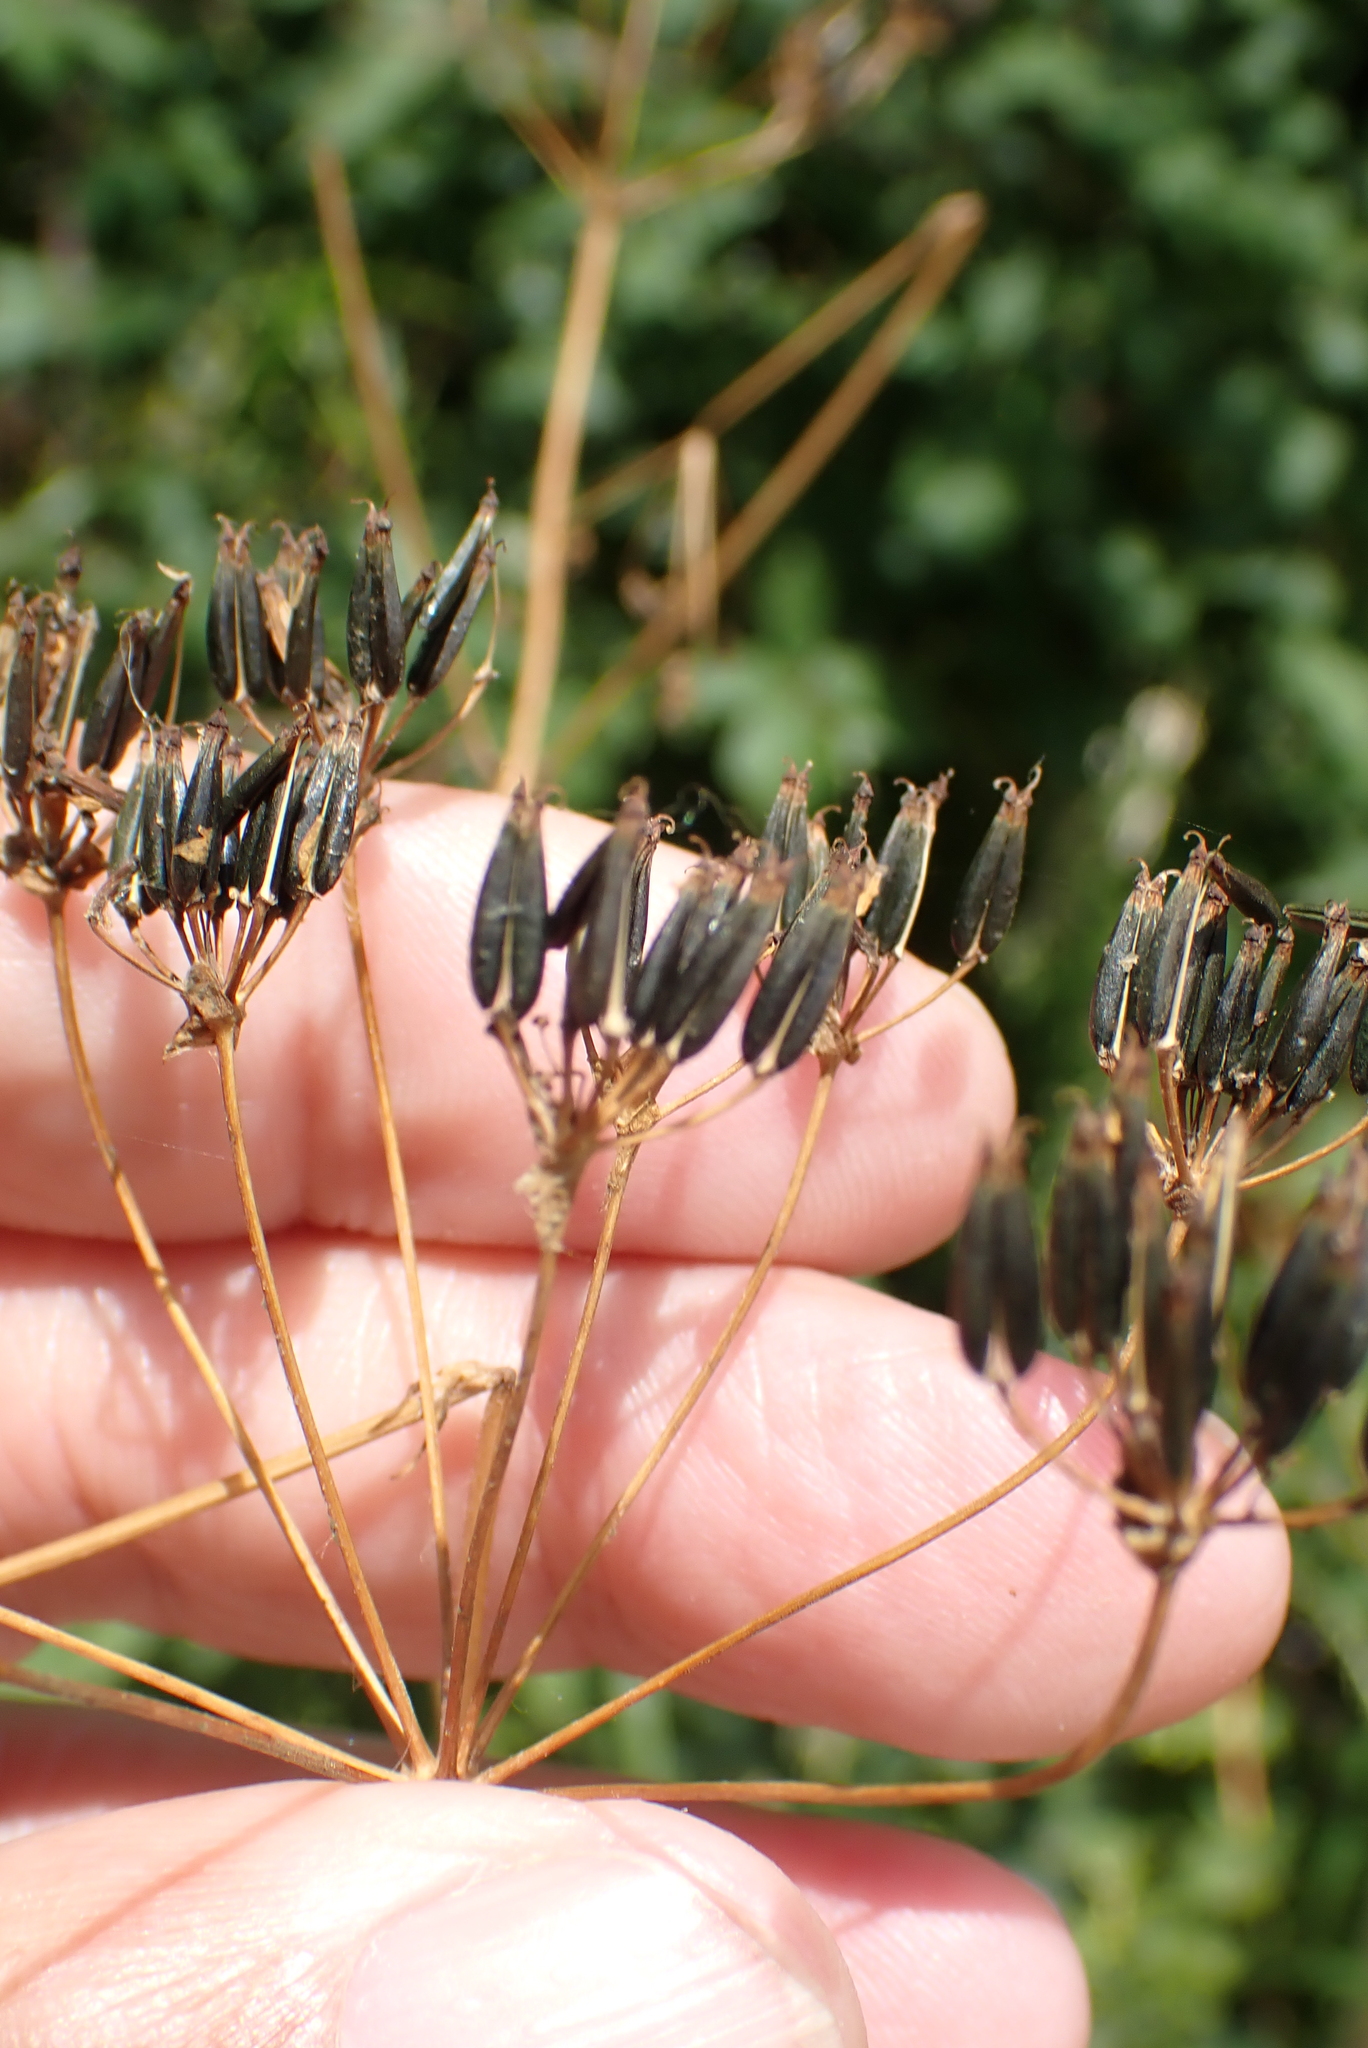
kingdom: Plantae
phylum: Tracheophyta
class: Magnoliopsida
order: Apiales
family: Apiaceae
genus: Anthriscus
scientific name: Anthriscus sylvestris
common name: Cow parsley
